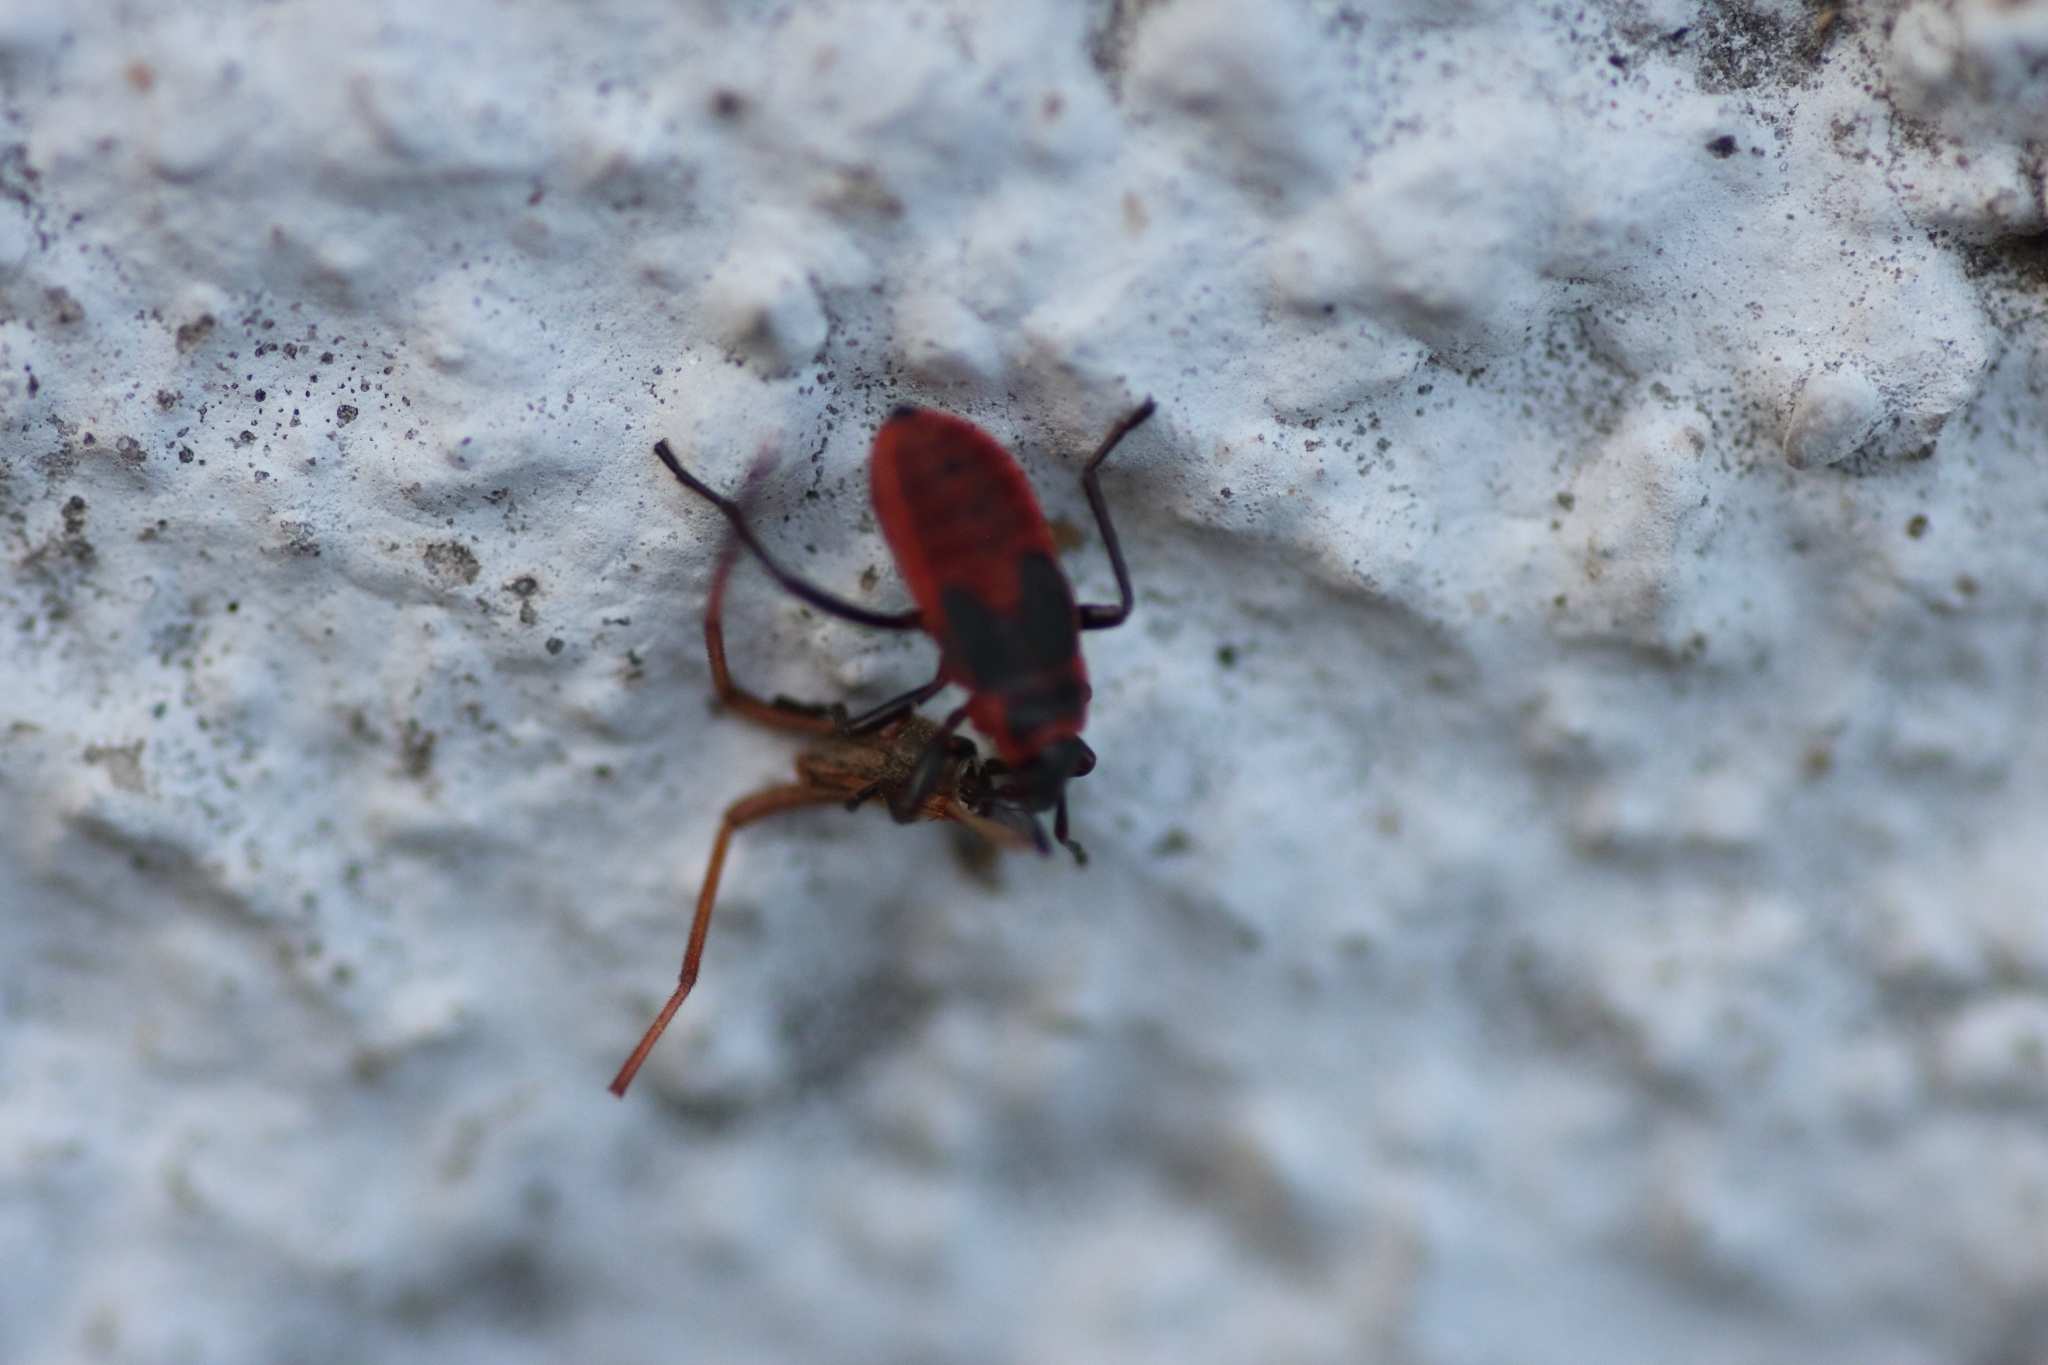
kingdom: Animalia
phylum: Arthropoda
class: Insecta
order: Hemiptera
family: Pyrrhocoridae
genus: Pyrrhocoris
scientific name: Pyrrhocoris apterus
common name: Firebug
